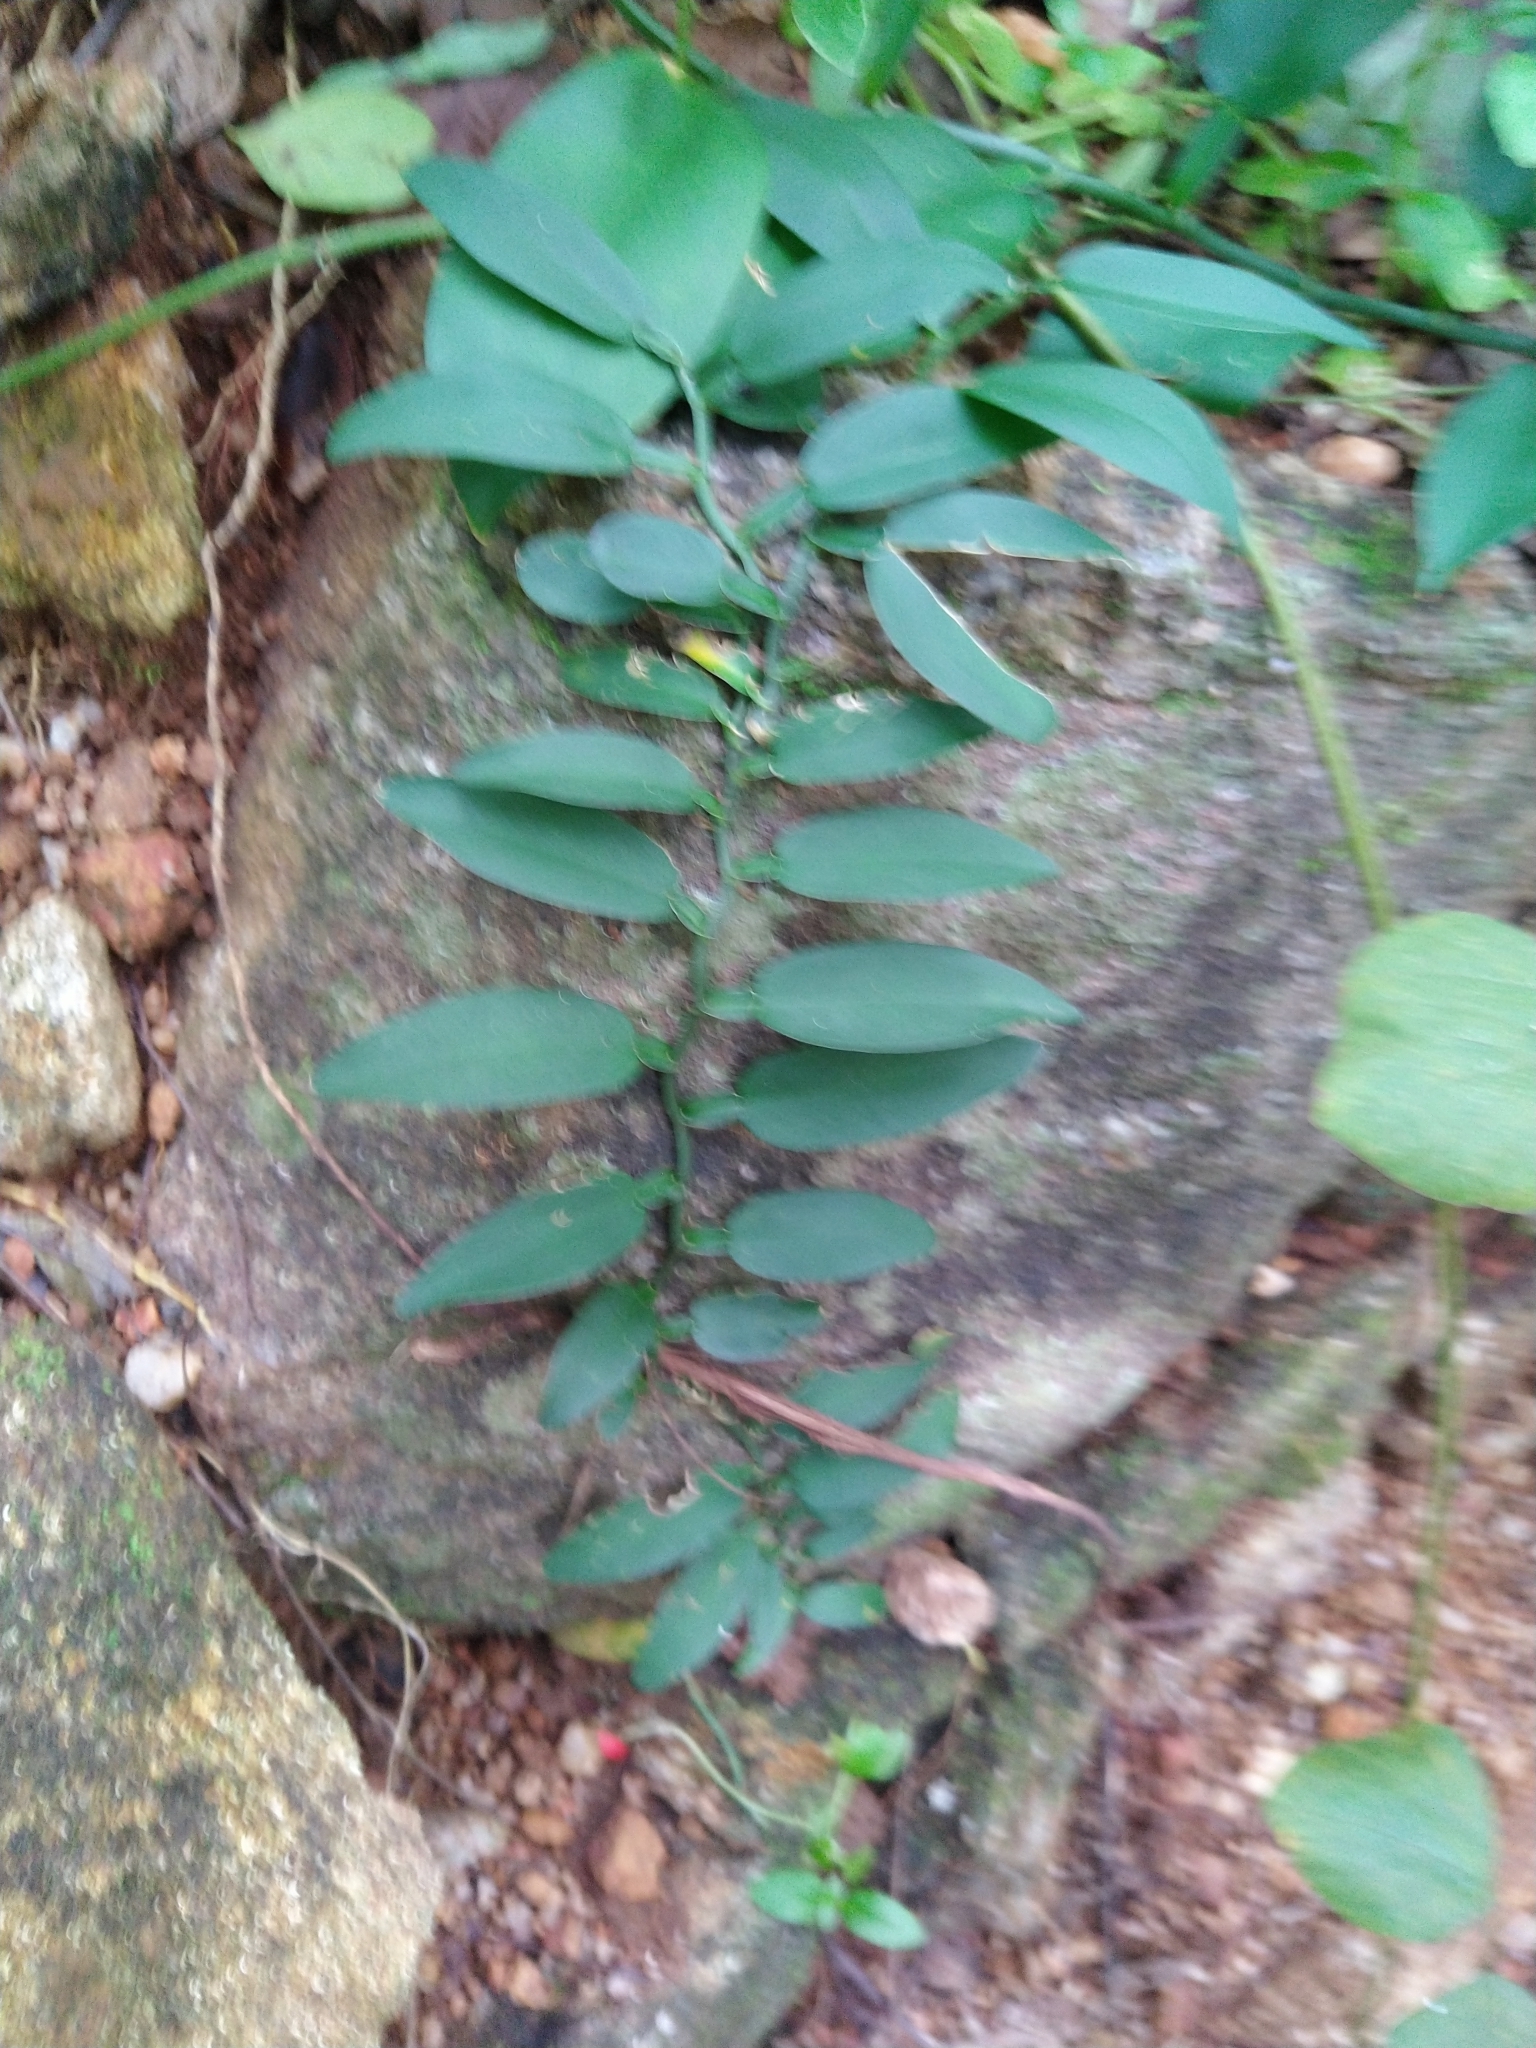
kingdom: Plantae
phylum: Tracheophyta
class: Liliopsida
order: Alismatales
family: Araceae
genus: Pothos
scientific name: Pothos chinensis
